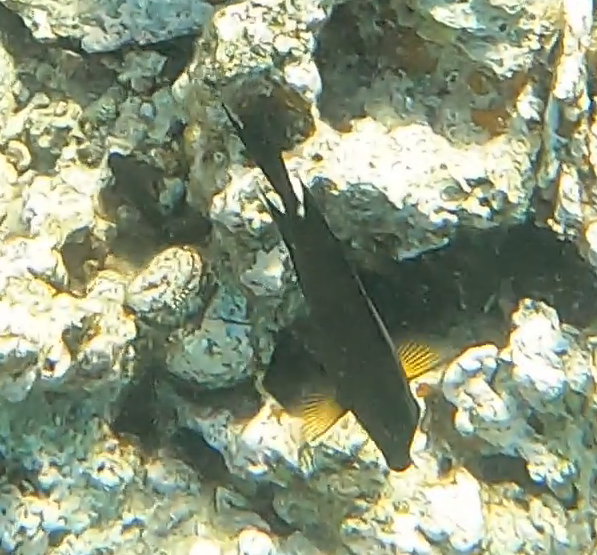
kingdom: Animalia
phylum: Chordata
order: Perciformes
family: Acanthuridae
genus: Ctenochaetus
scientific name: Ctenochaetus striatus
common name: Bristle-toothed surgeonfish
